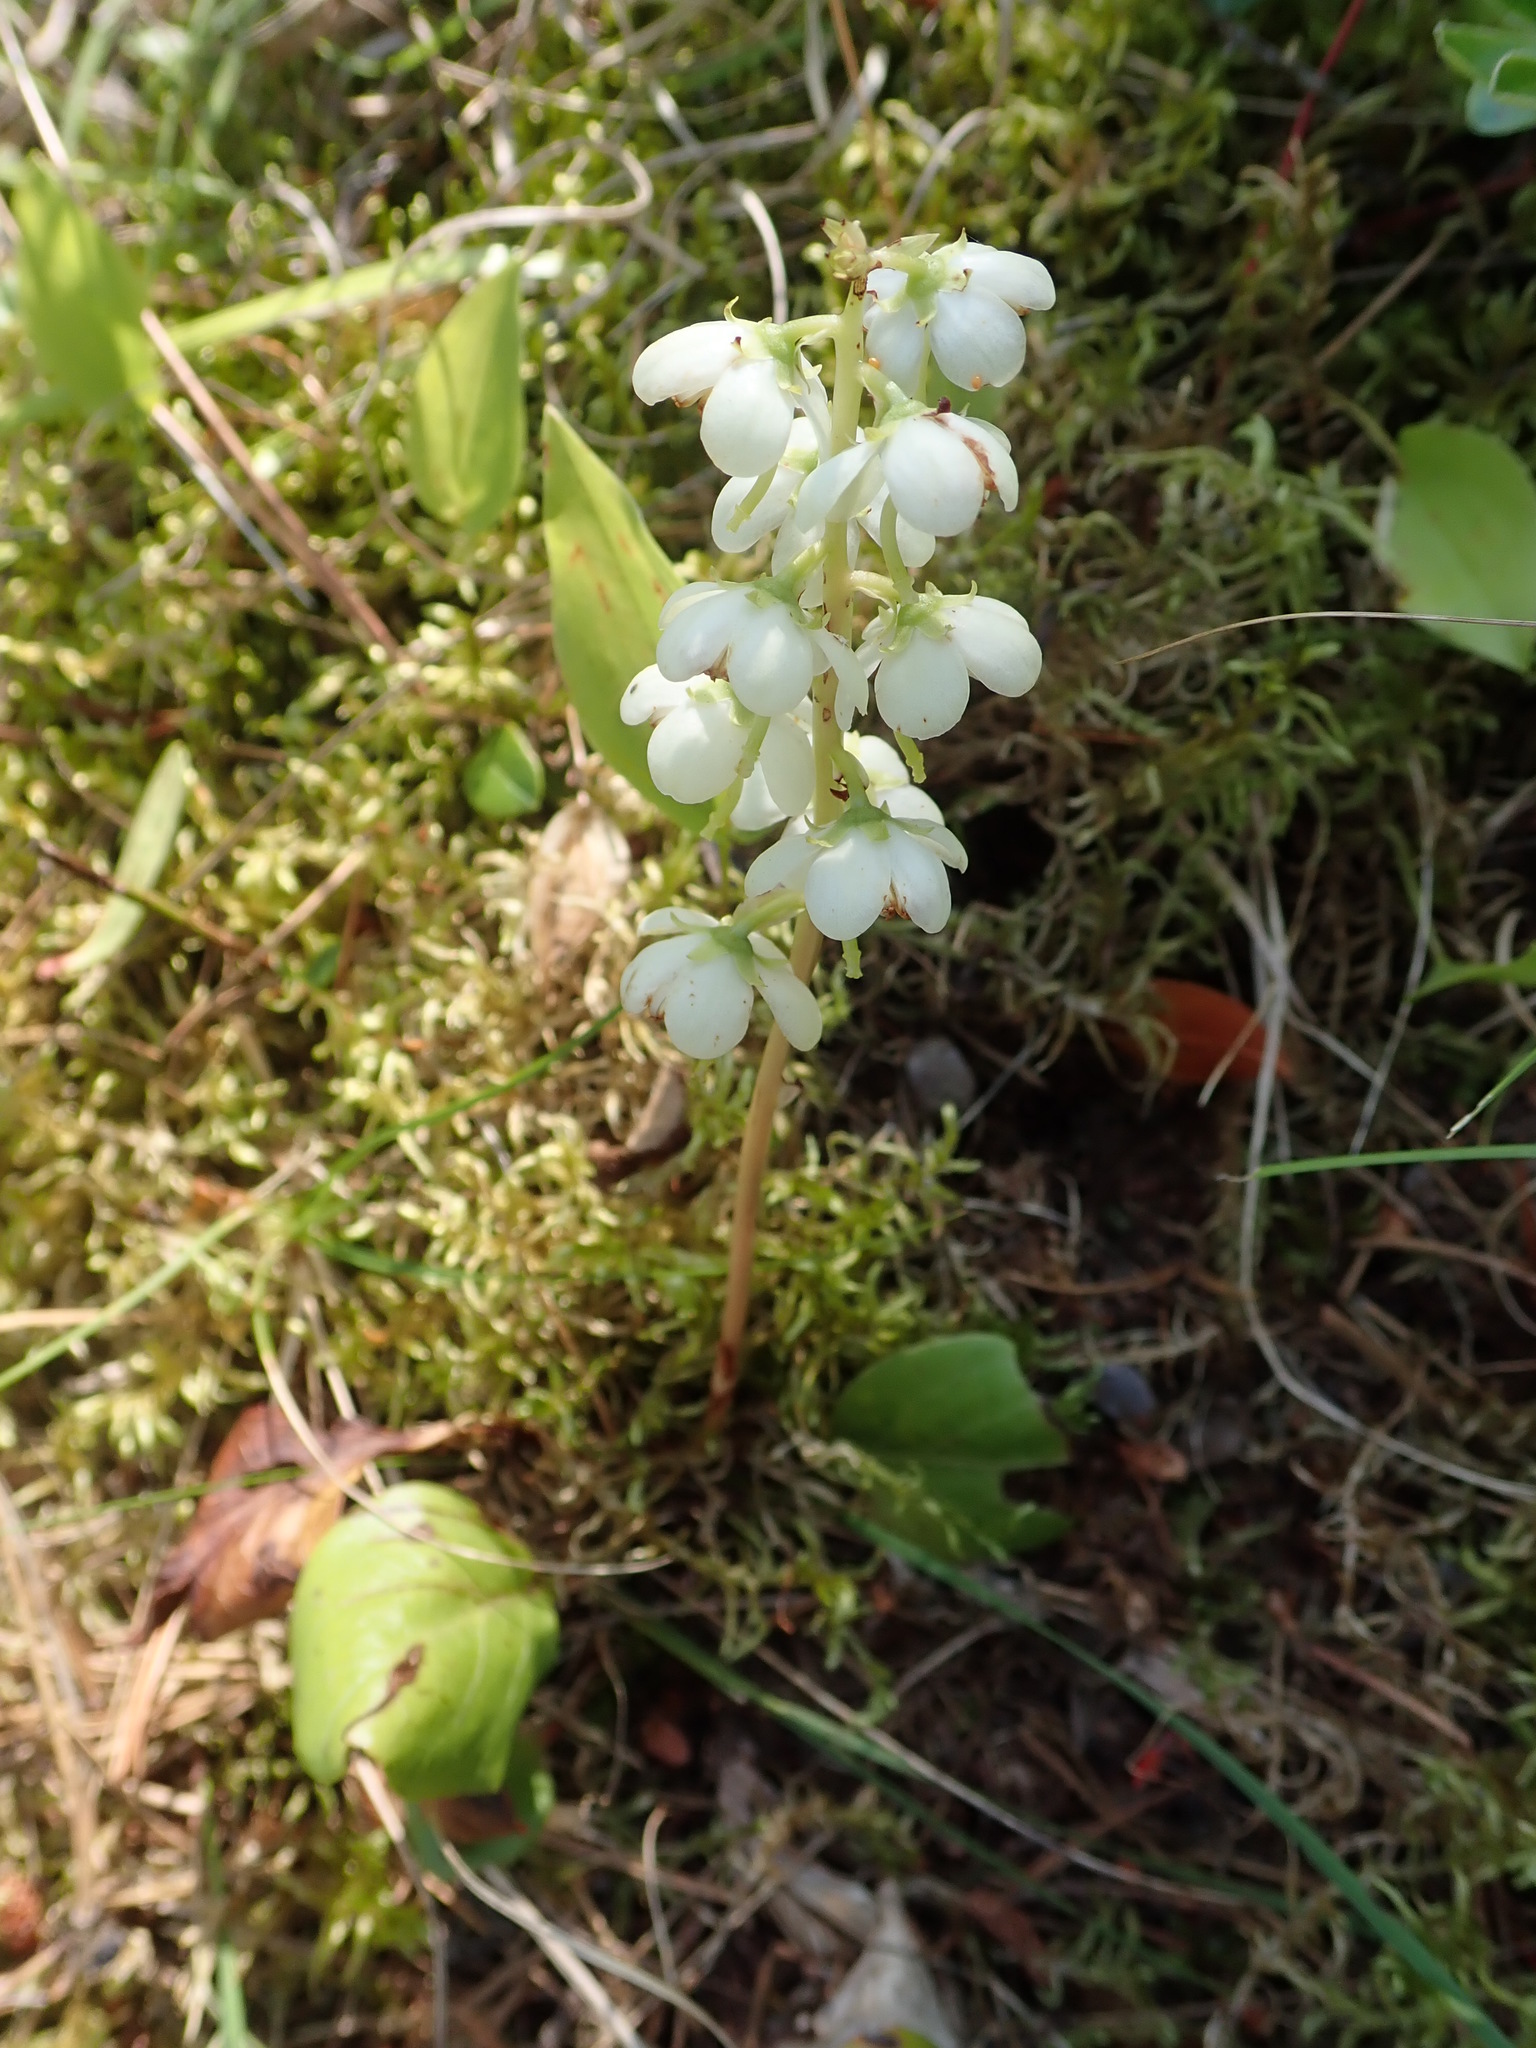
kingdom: Plantae
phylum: Tracheophyta
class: Magnoliopsida
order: Ericales
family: Ericaceae
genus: Pyrola
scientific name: Pyrola americana
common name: American wintergreen
